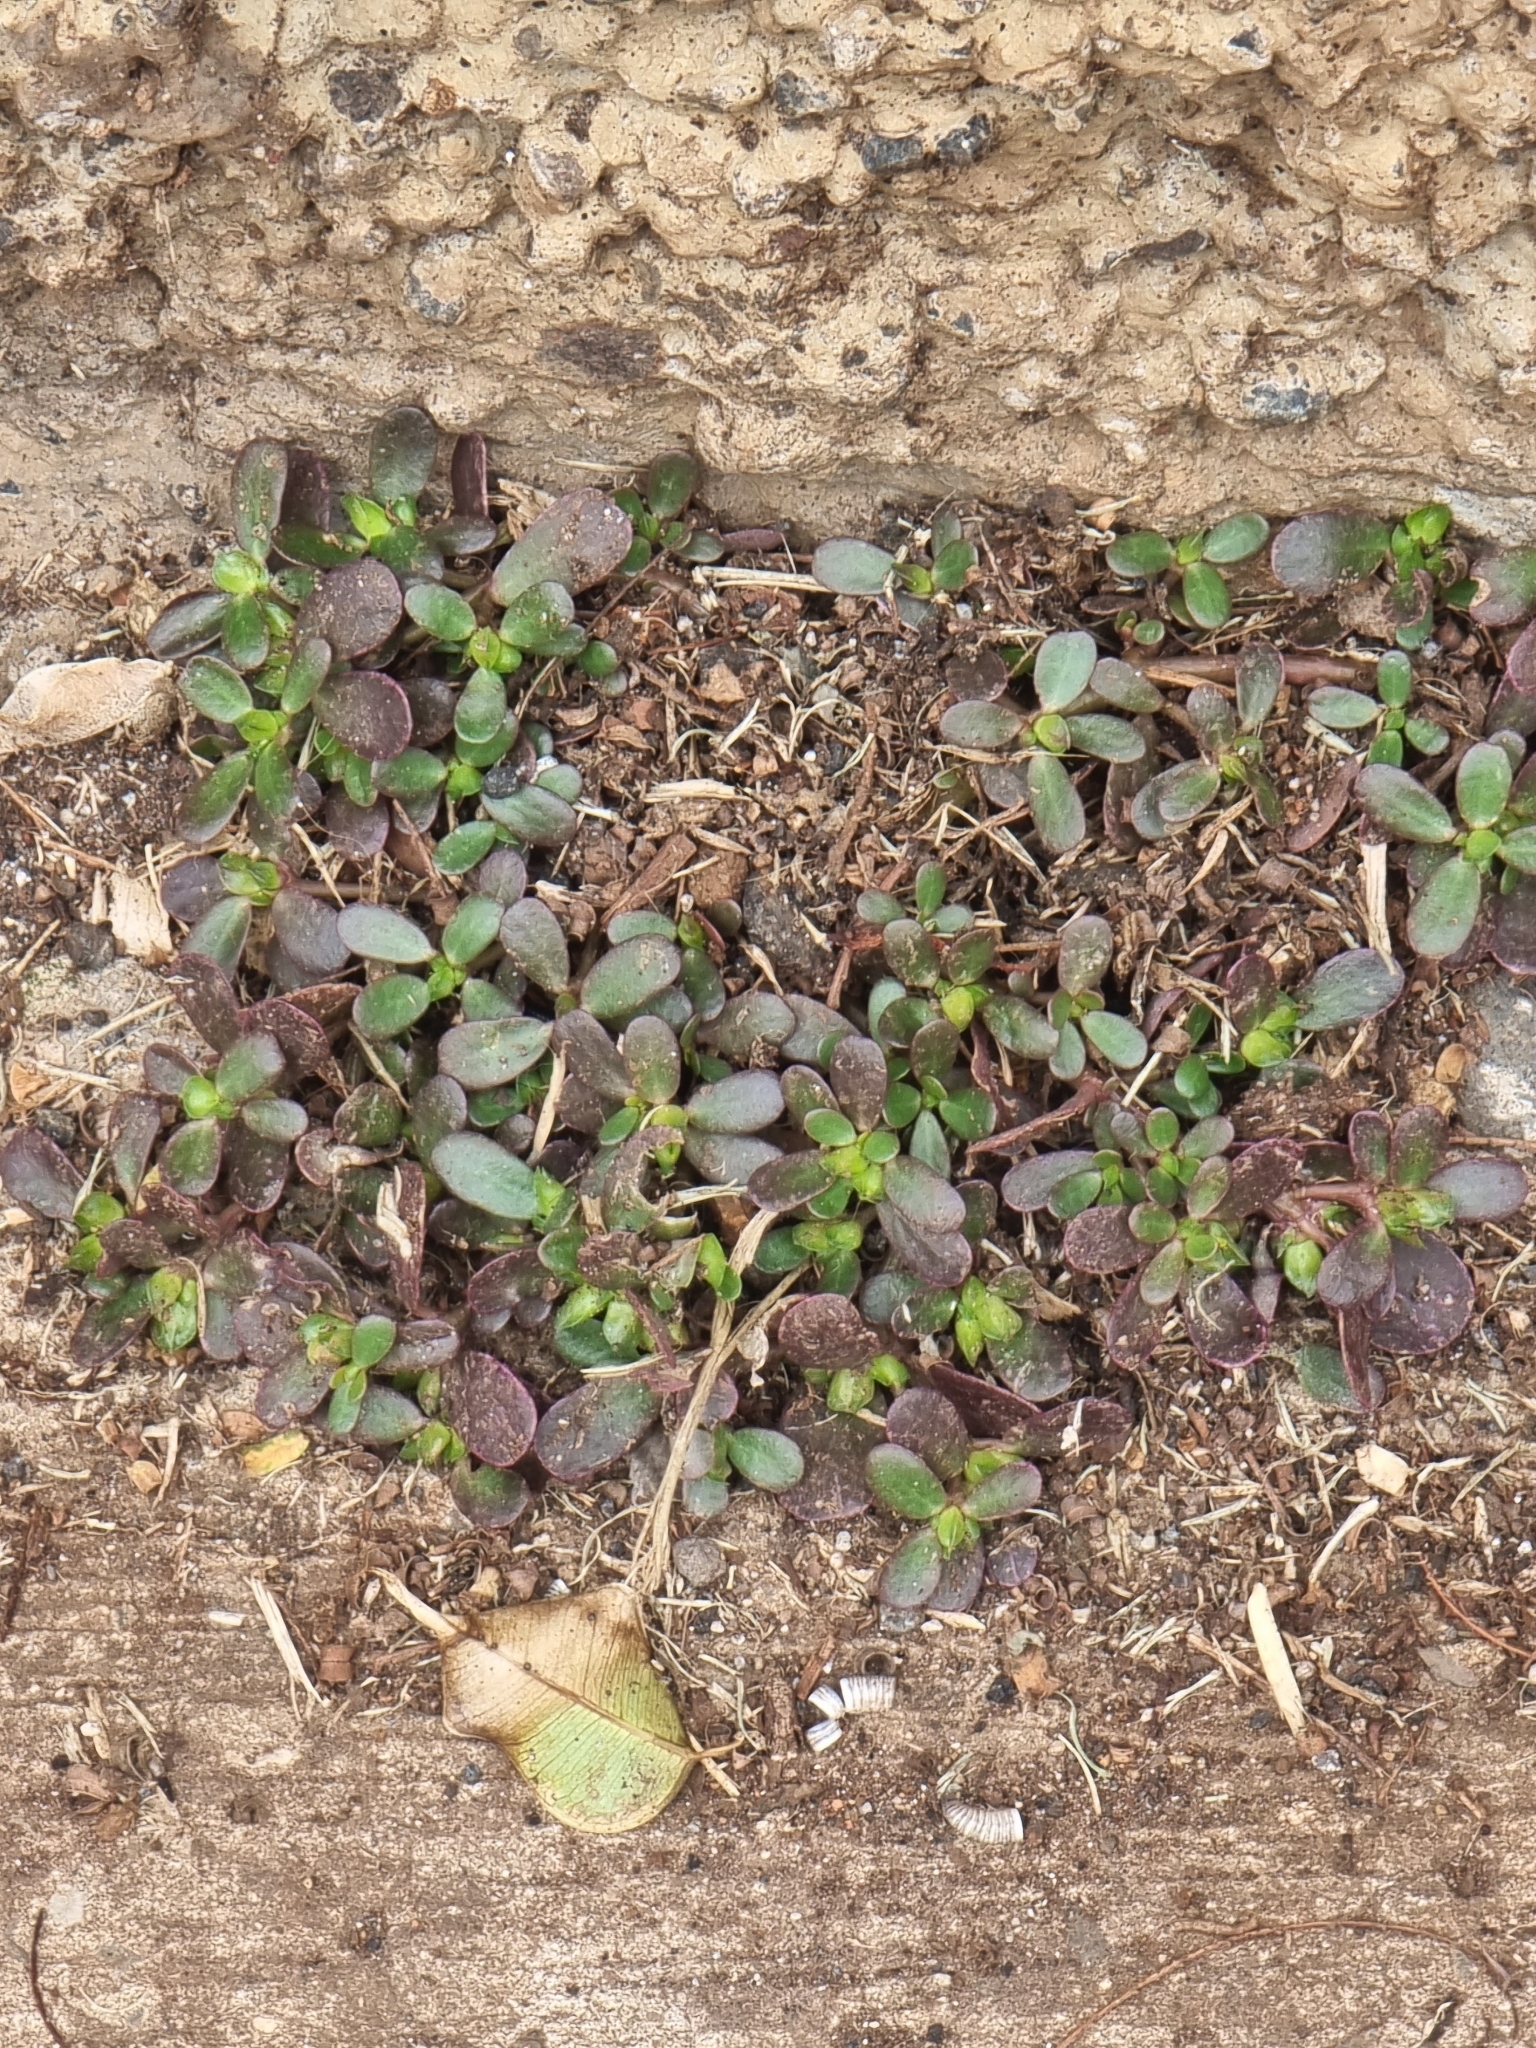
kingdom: Plantae
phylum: Tracheophyta
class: Magnoliopsida
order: Caryophyllales
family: Portulacaceae
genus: Portulaca
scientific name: Portulaca oleracea
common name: Common purslane
